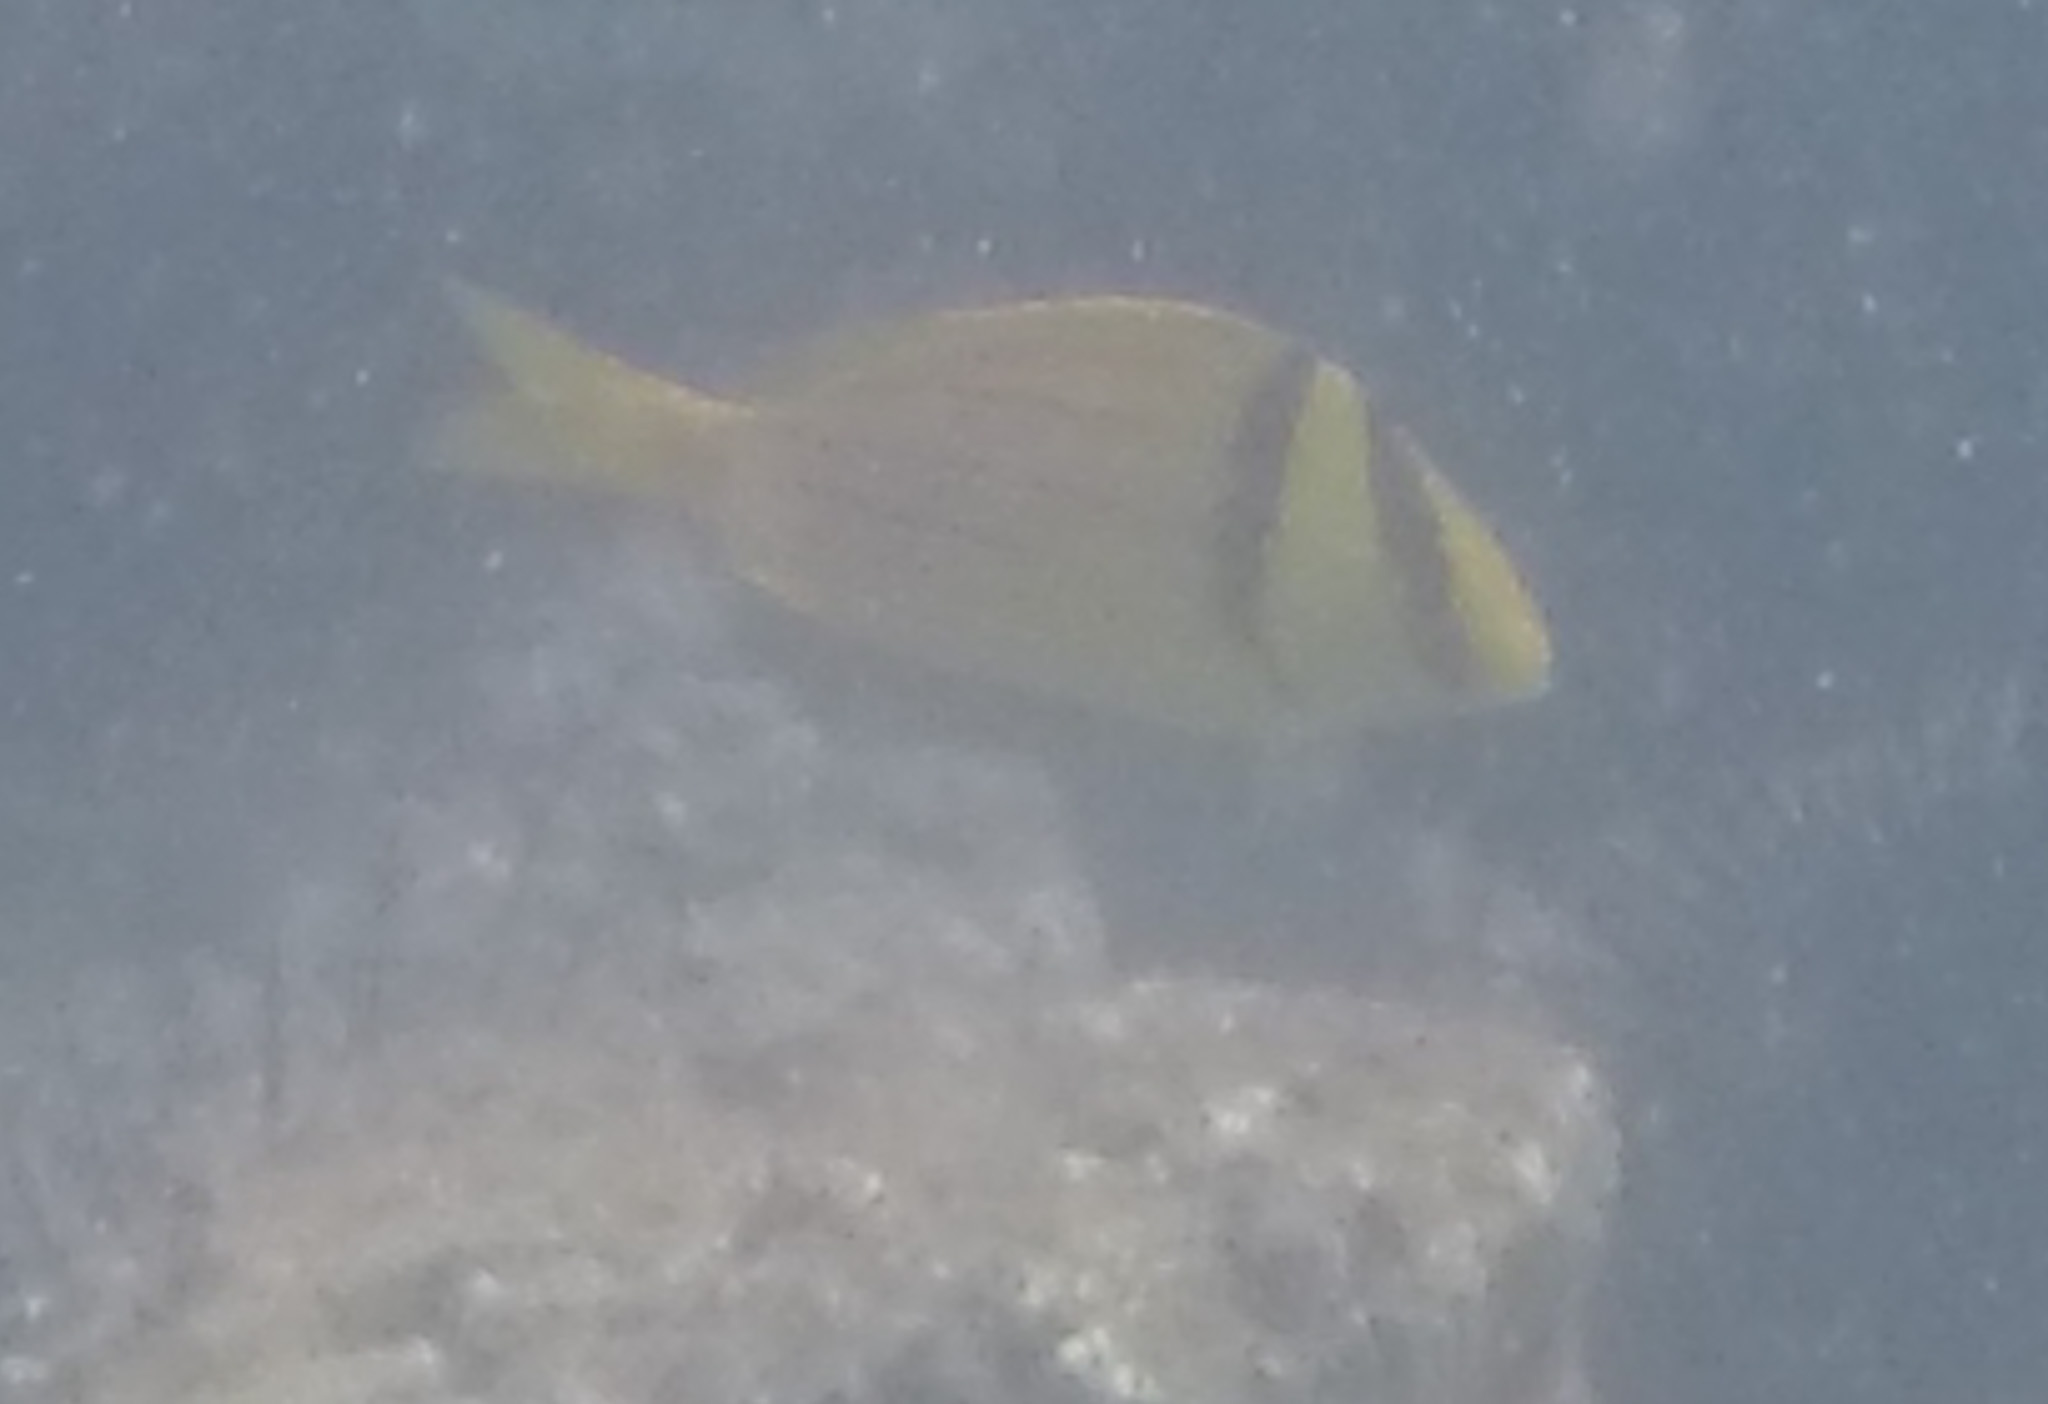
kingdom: Animalia
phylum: Chordata
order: Perciformes
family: Haemulidae
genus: Anisotremus
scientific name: Anisotremus taeniatus
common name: Catalina
